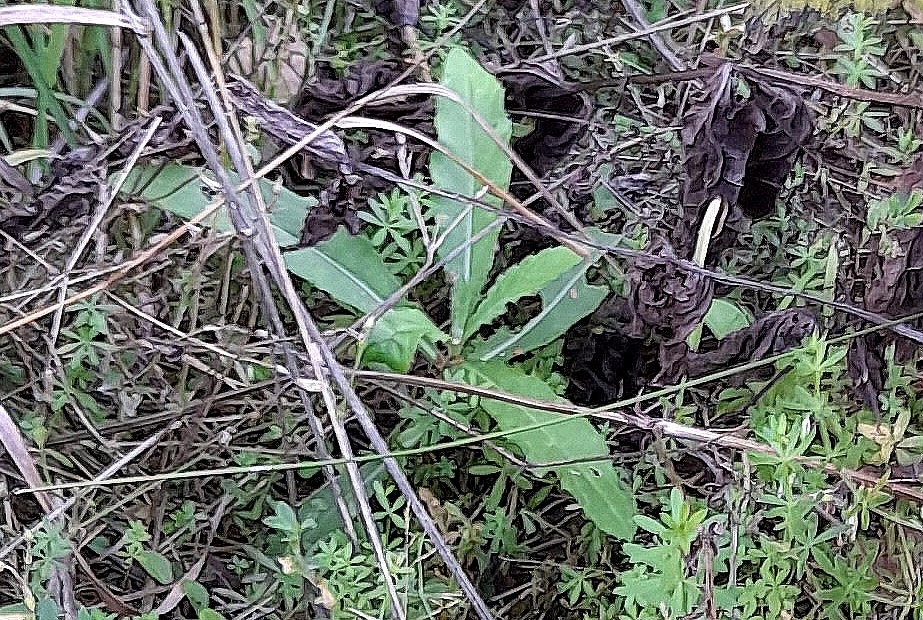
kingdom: Plantae
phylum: Tracheophyta
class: Magnoliopsida
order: Asterales
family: Asteraceae
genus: Cirsium
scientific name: Cirsium arvense
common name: Creeping thistle
